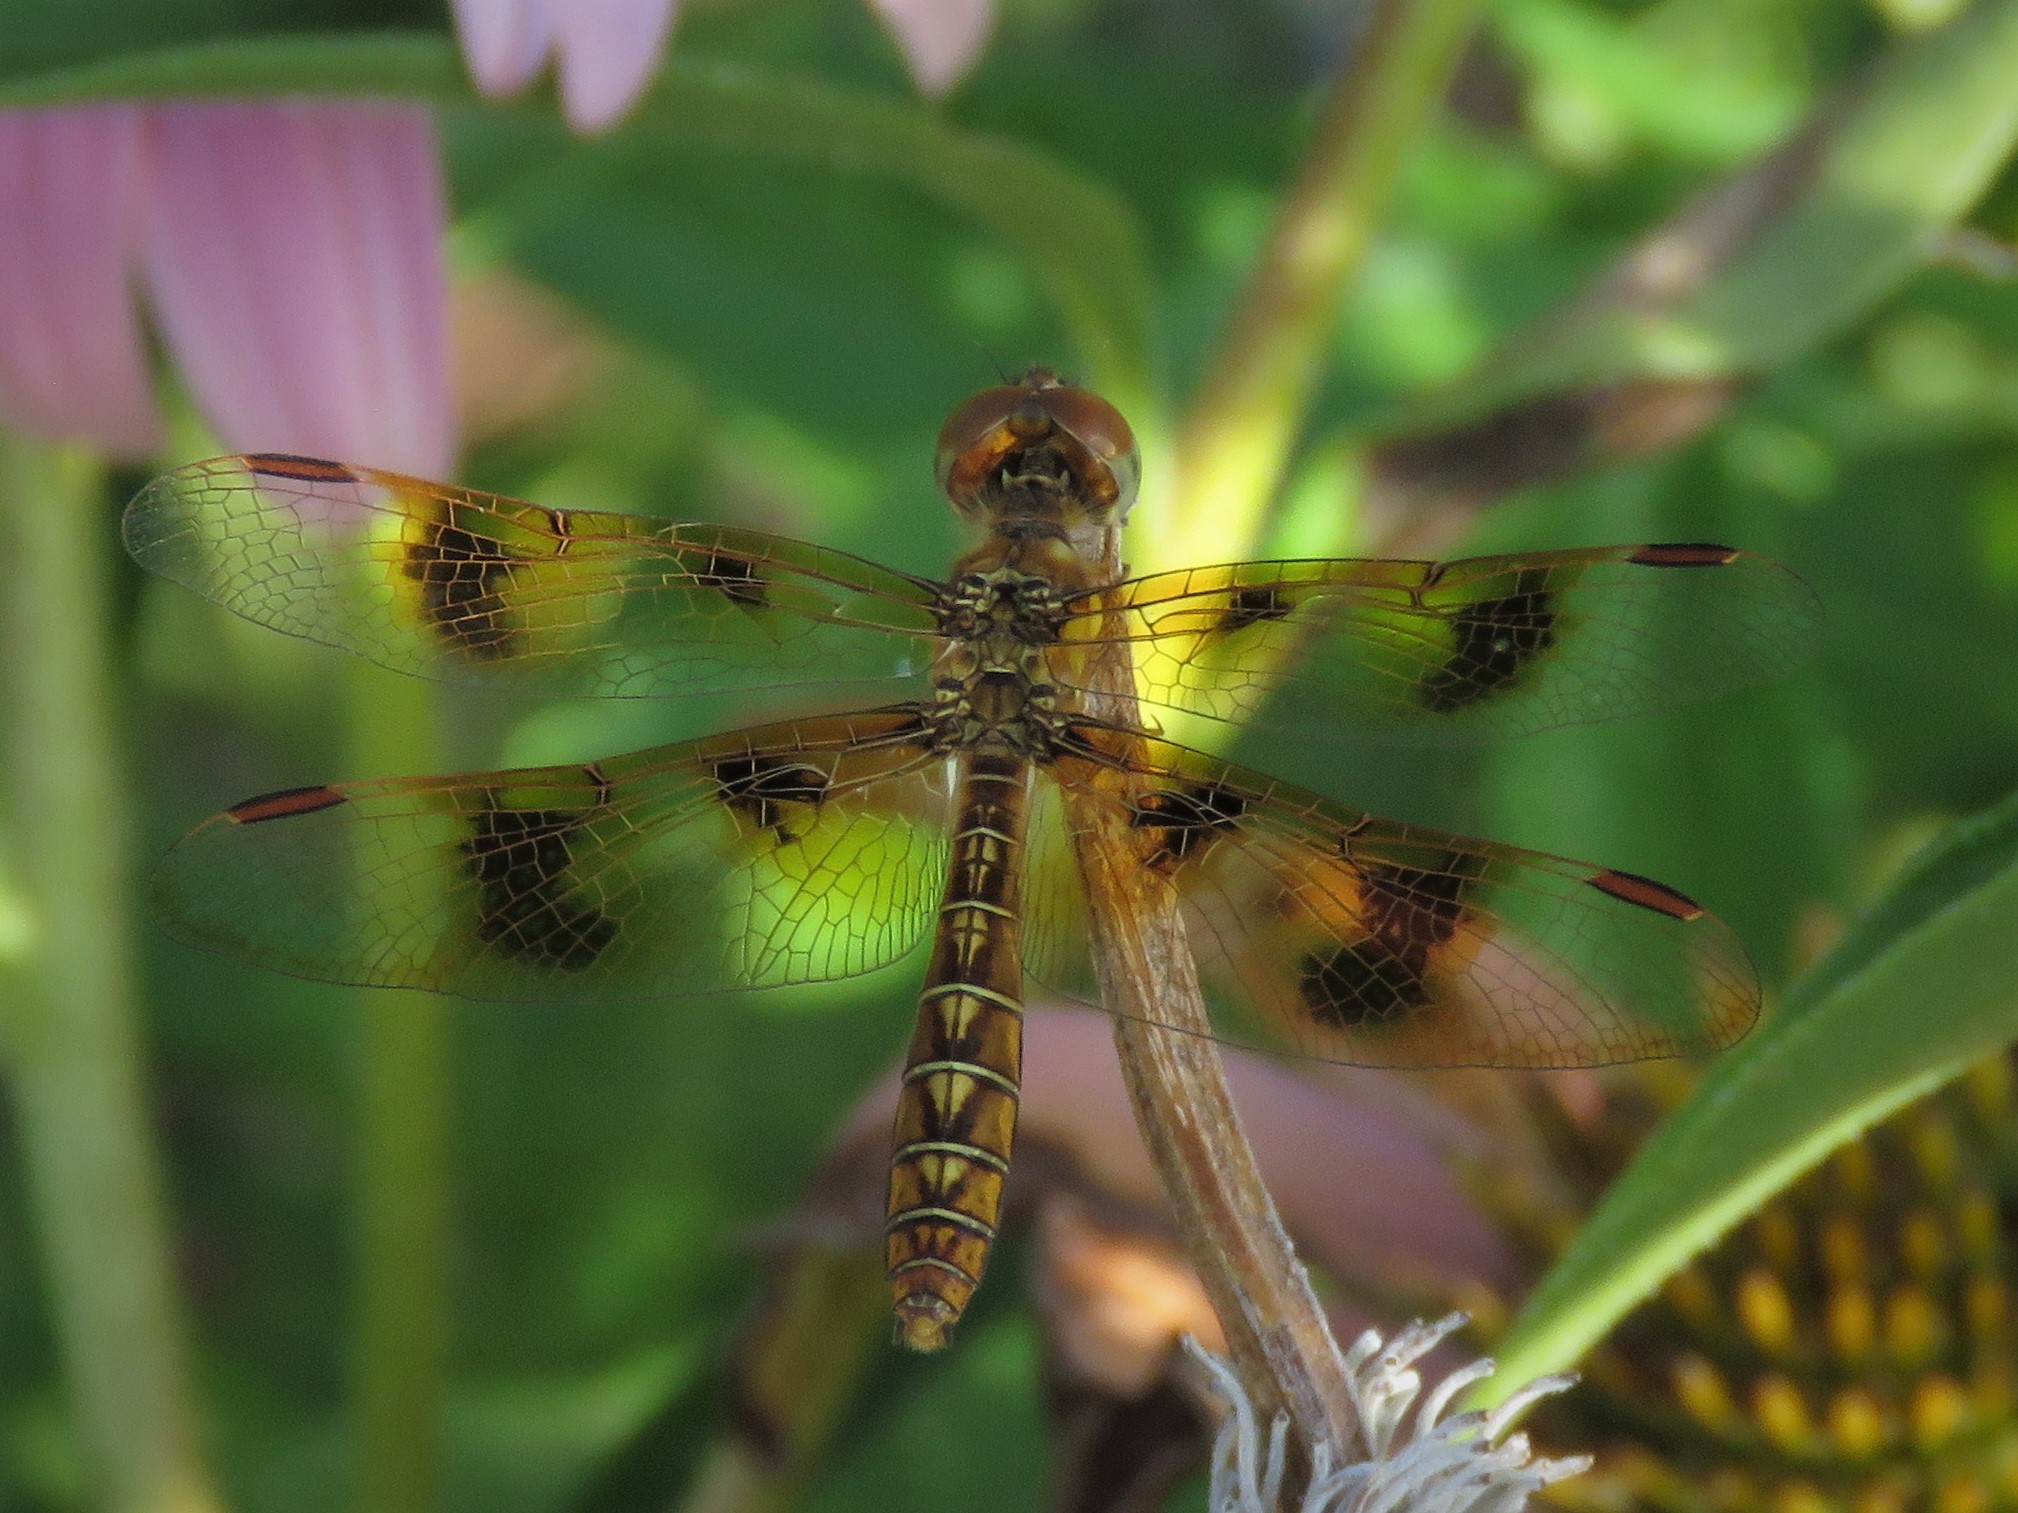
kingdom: Animalia
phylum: Arthropoda
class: Insecta
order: Odonata
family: Libellulidae
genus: Perithemis
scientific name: Perithemis tenera
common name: Eastern amberwing
